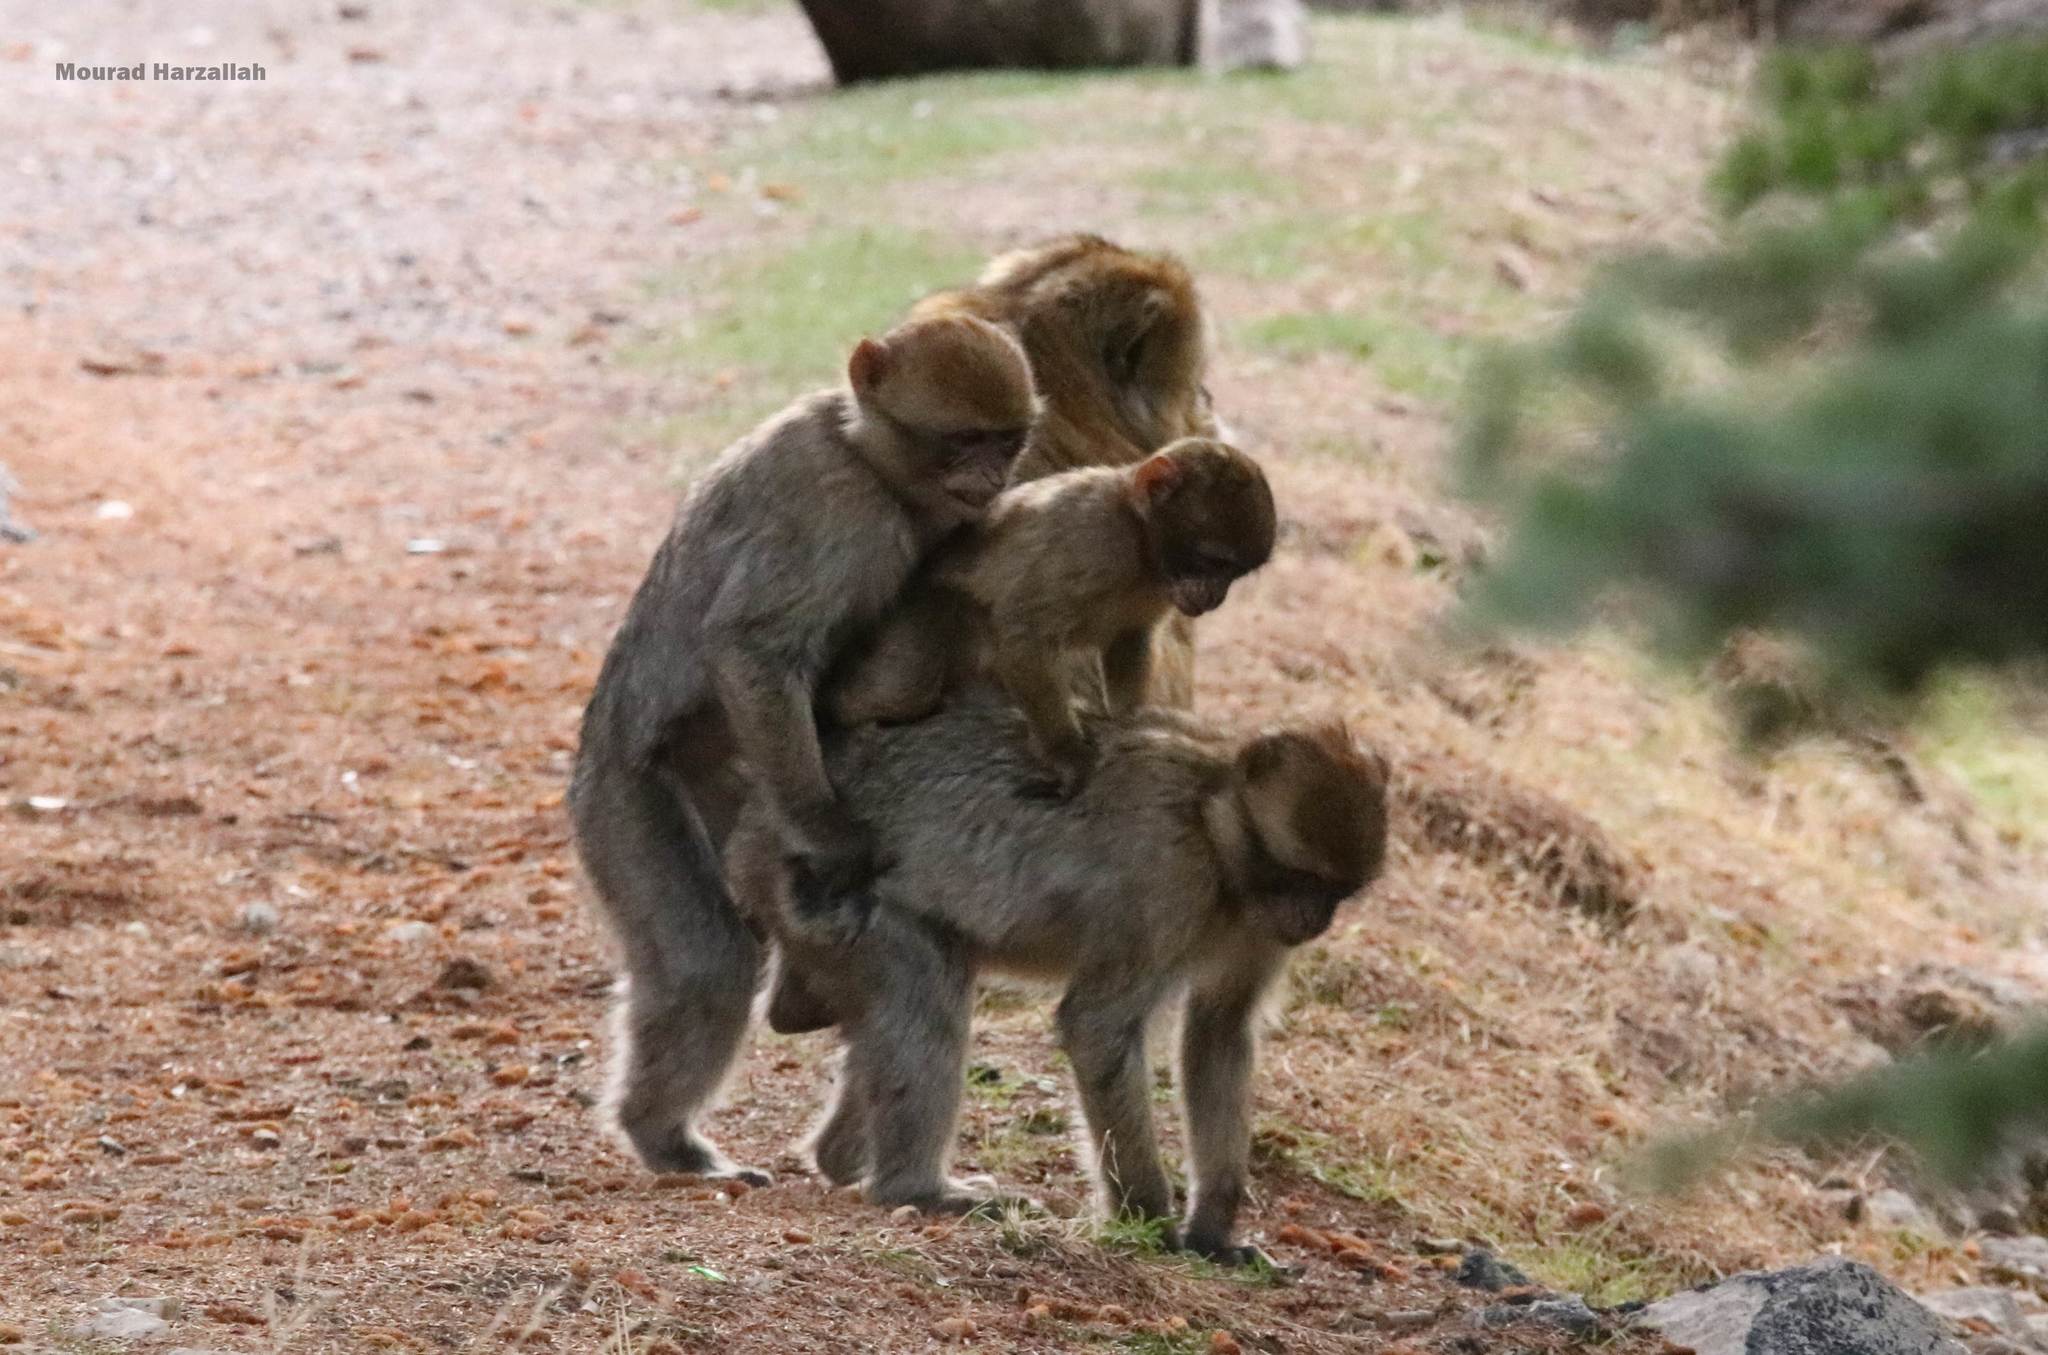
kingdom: Animalia
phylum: Chordata
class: Mammalia
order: Primates
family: Cercopithecidae
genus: Macaca
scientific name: Macaca sylvanus
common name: Barbary macaque
